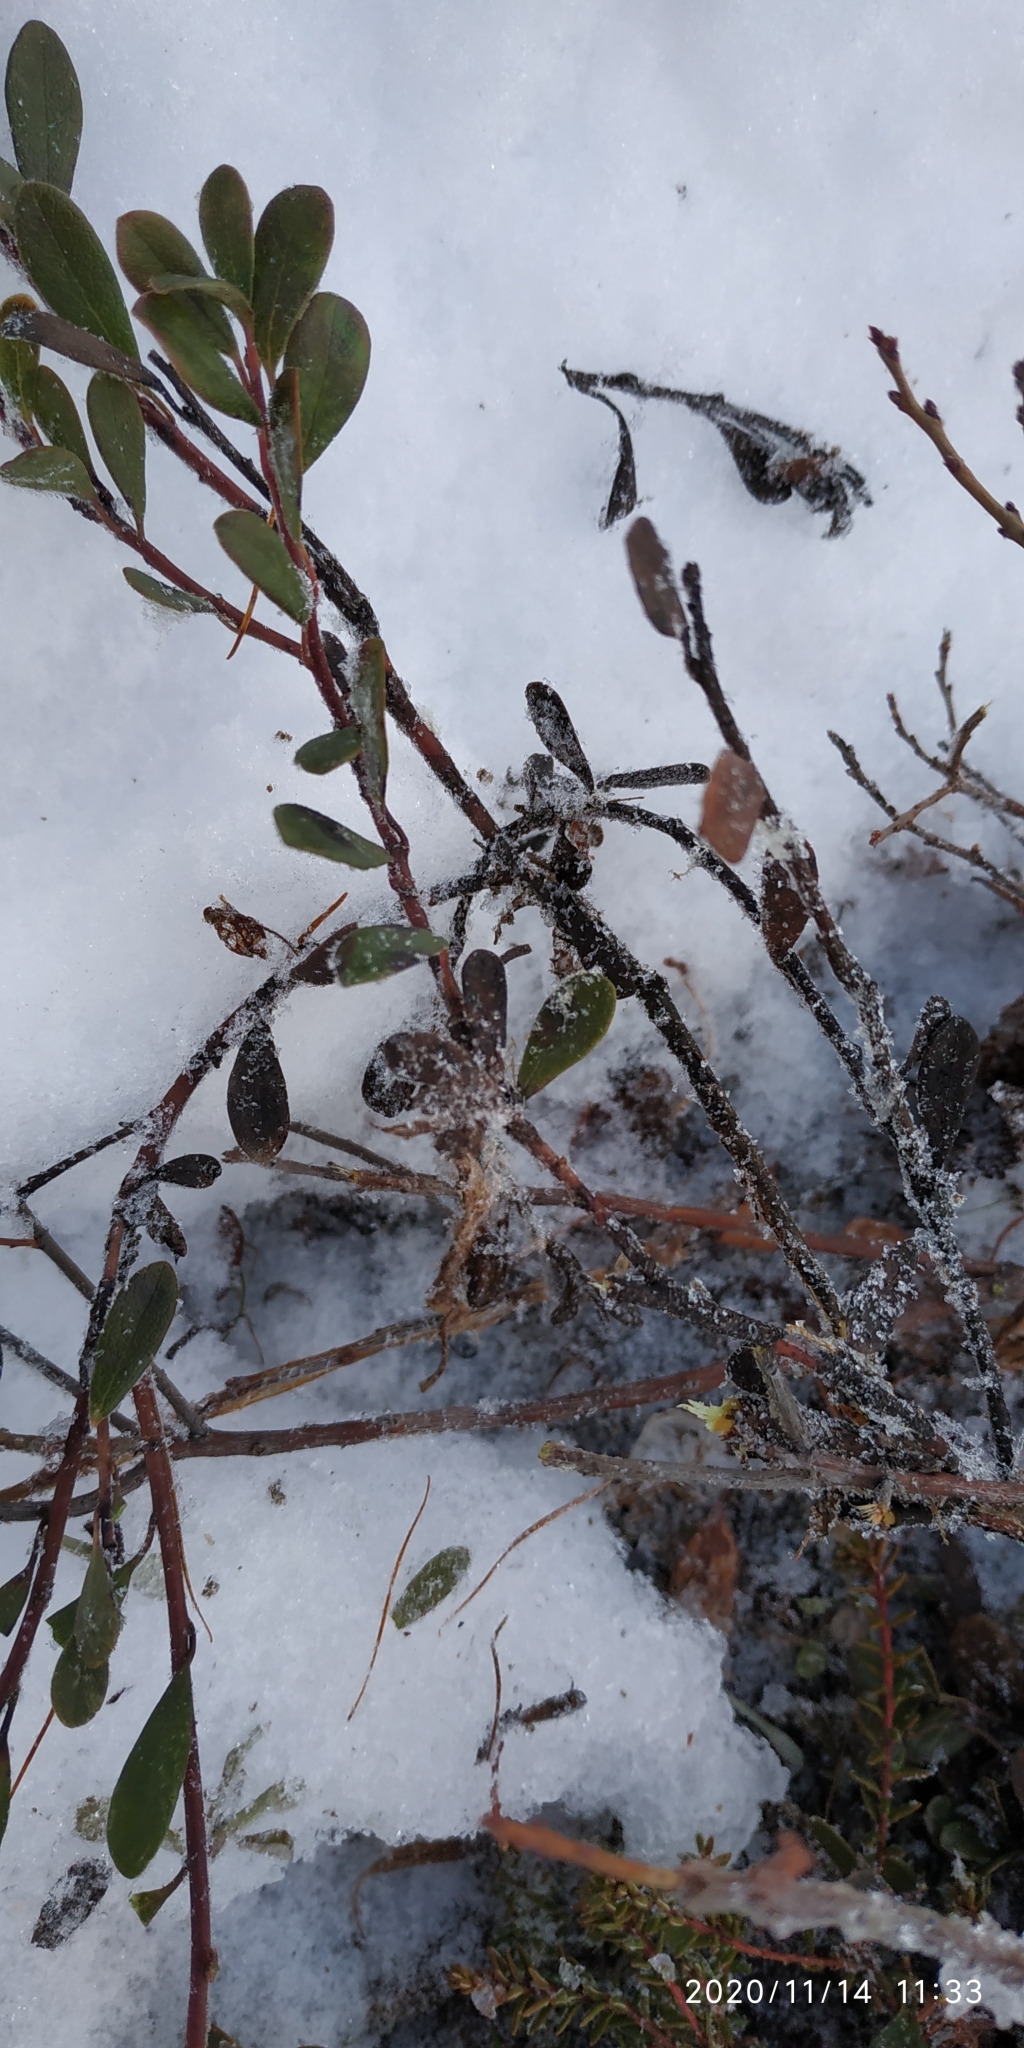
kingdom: Plantae
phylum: Tracheophyta
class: Magnoliopsida
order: Ericales
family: Ericaceae
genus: Chamaedaphne
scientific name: Chamaedaphne calyculata
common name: Leatherleaf
